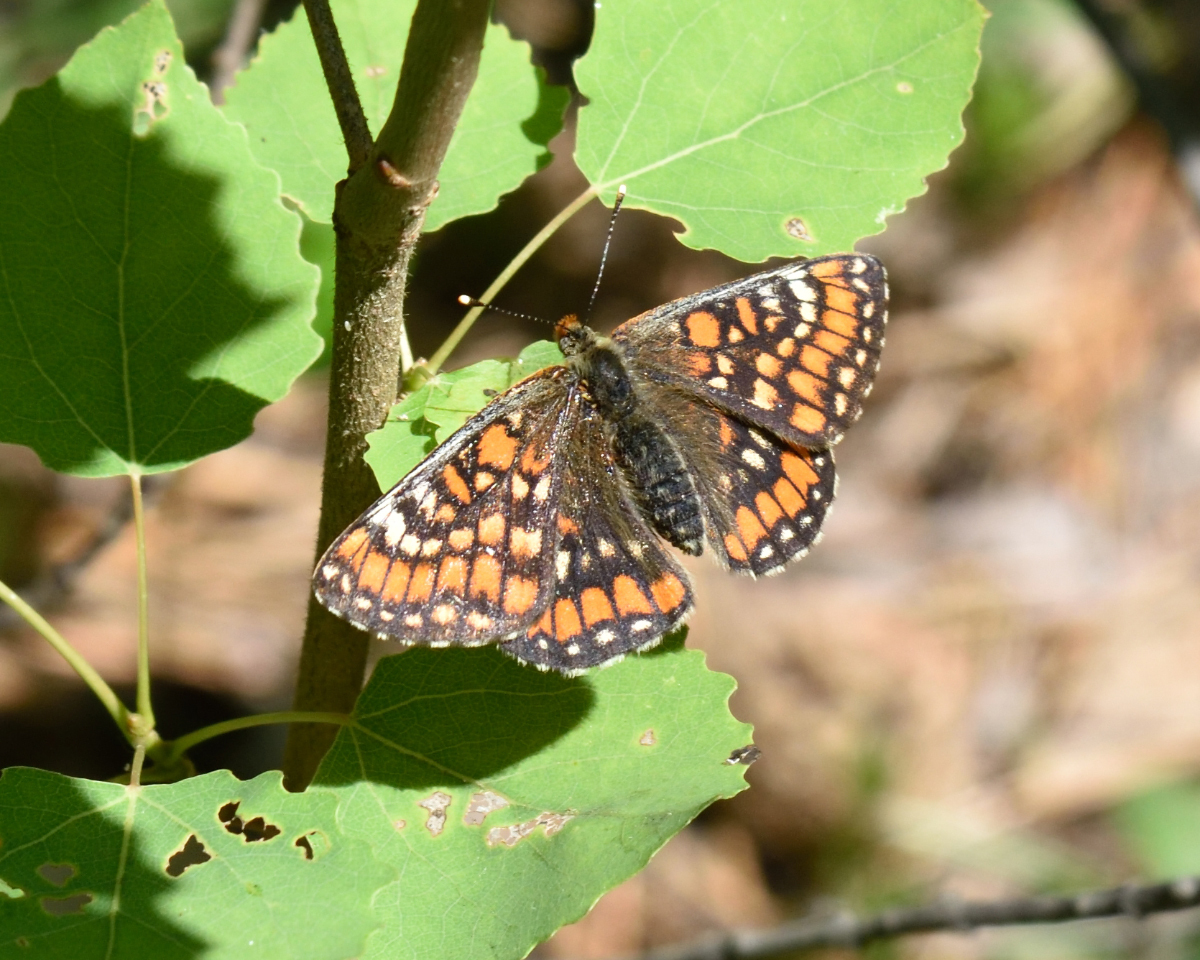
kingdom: Animalia
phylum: Arthropoda
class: Insecta
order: Lepidoptera
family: Nymphalidae
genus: Euphydryas
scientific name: Euphydryas maturna
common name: Scarce fritillary
